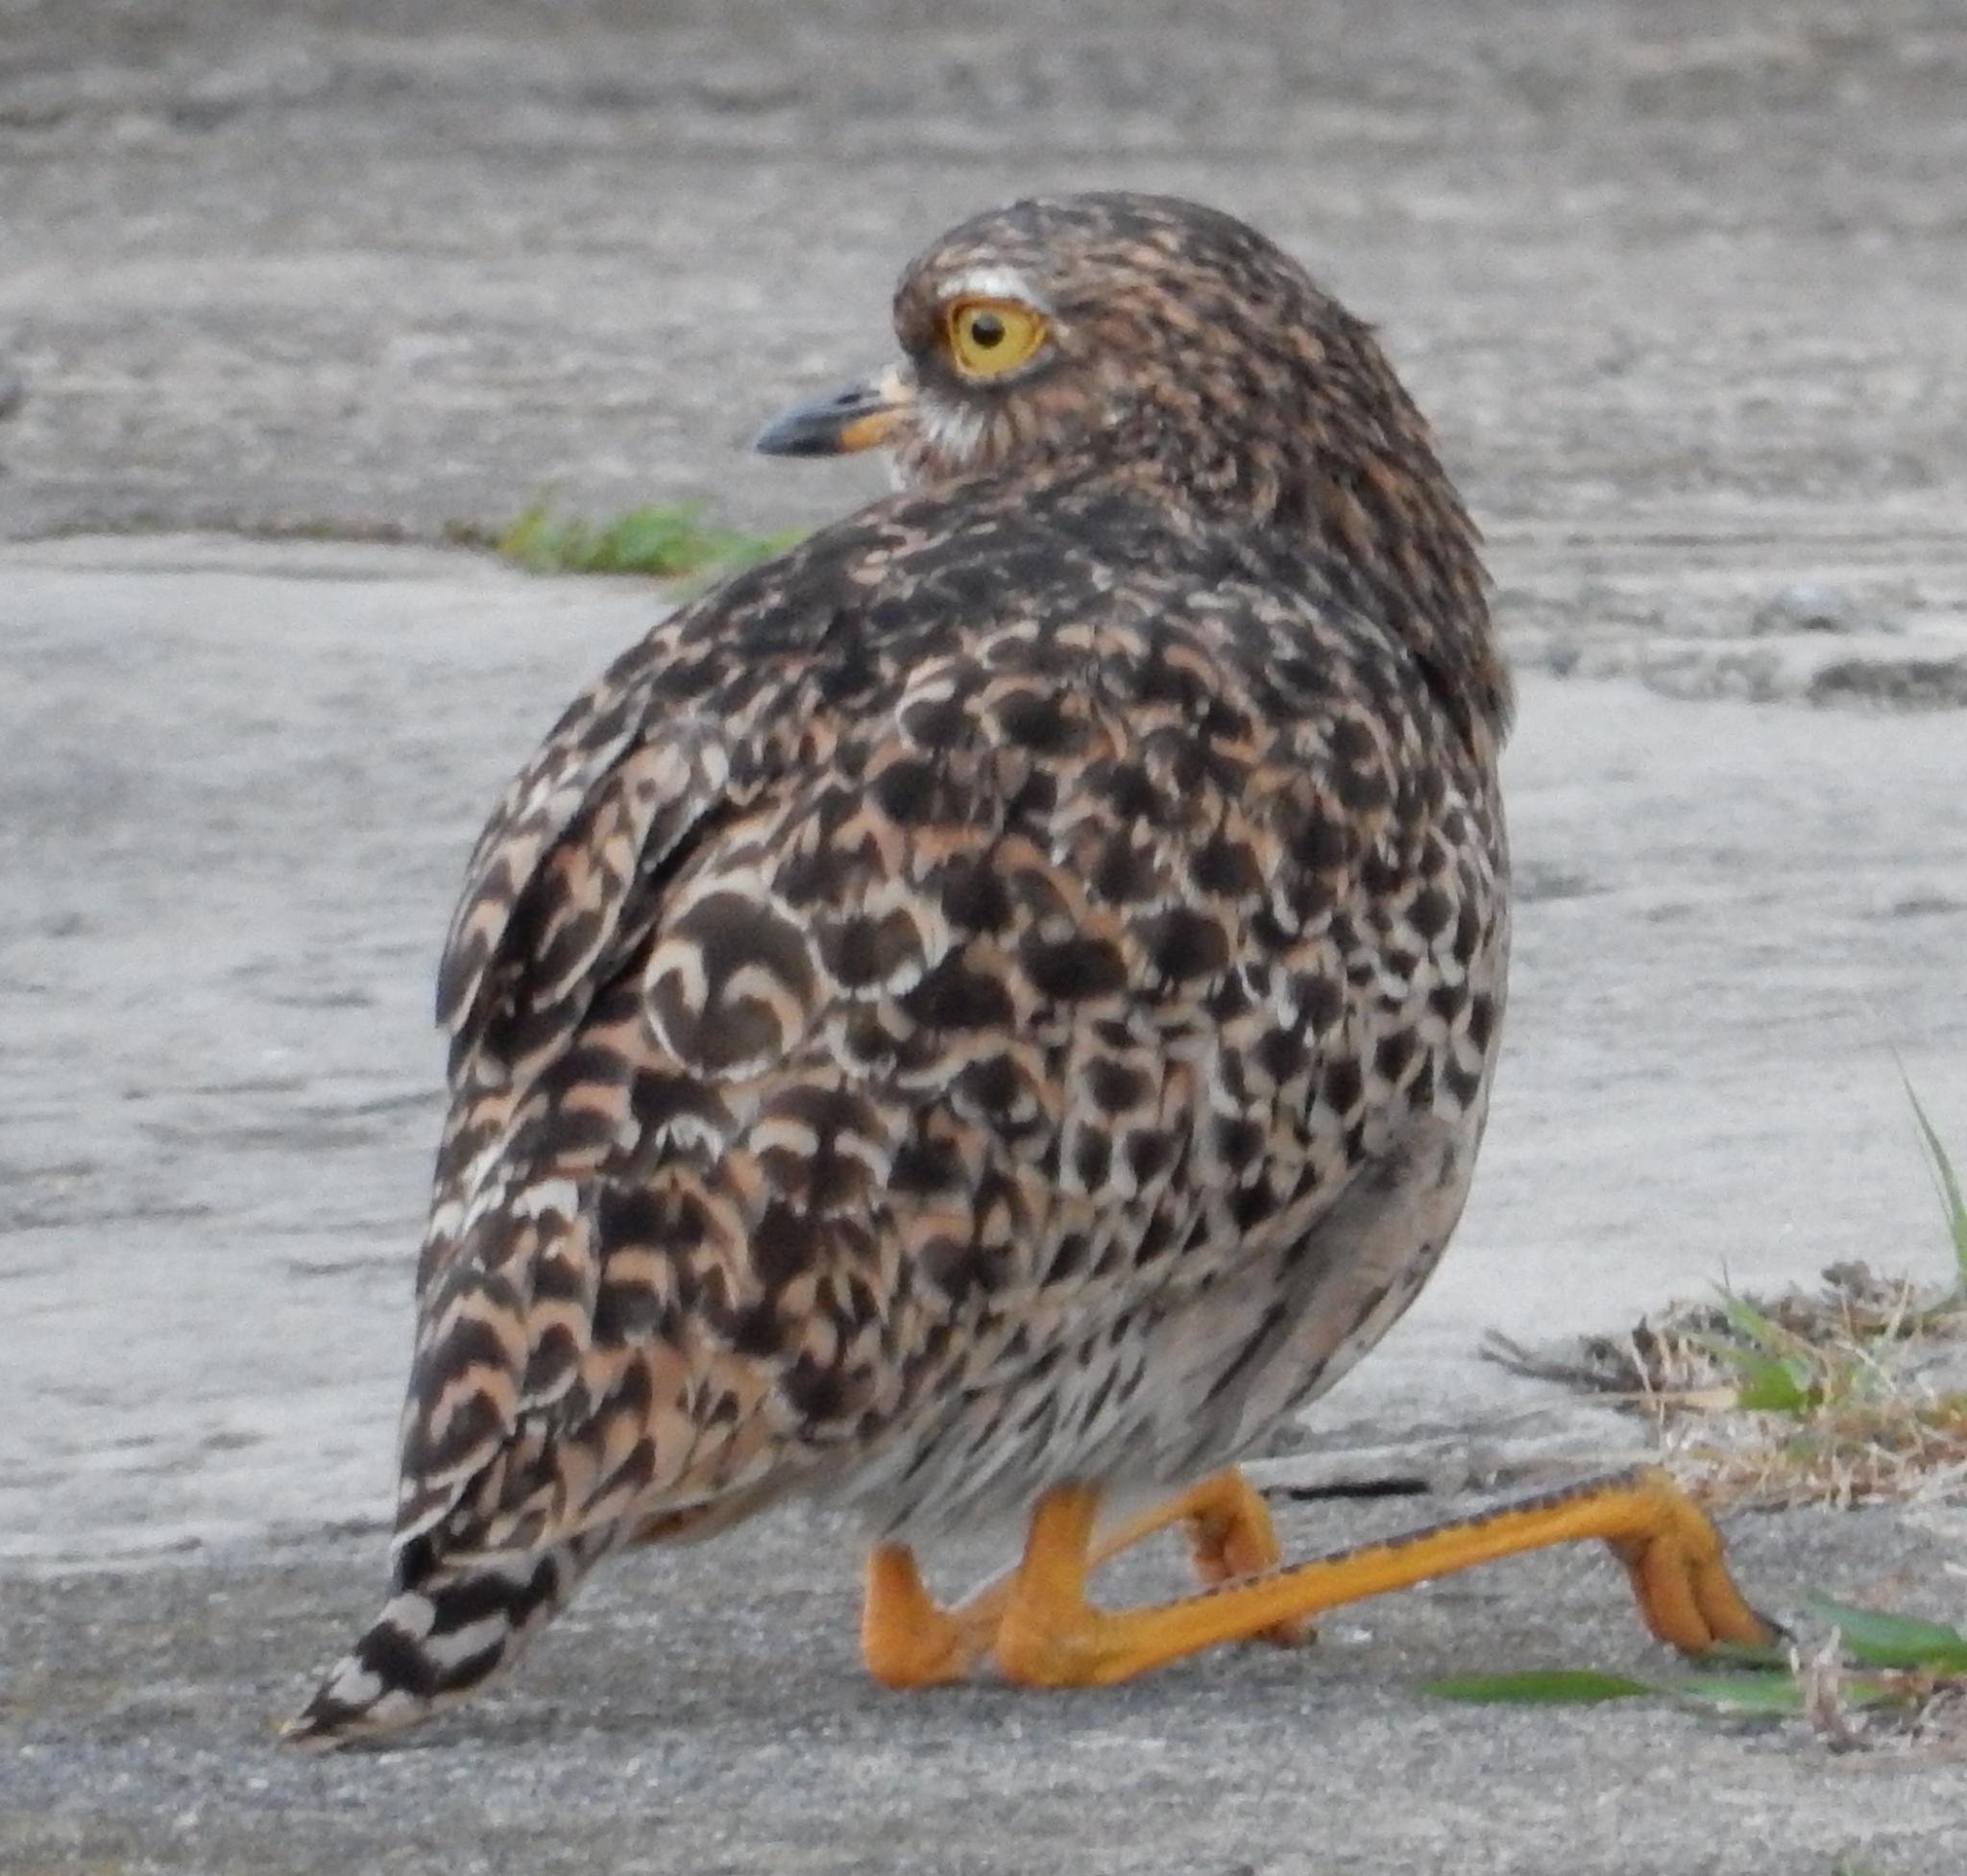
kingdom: Animalia
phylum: Chordata
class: Aves
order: Charadriiformes
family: Burhinidae
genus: Burhinus
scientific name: Burhinus capensis
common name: Spotted thick-knee
